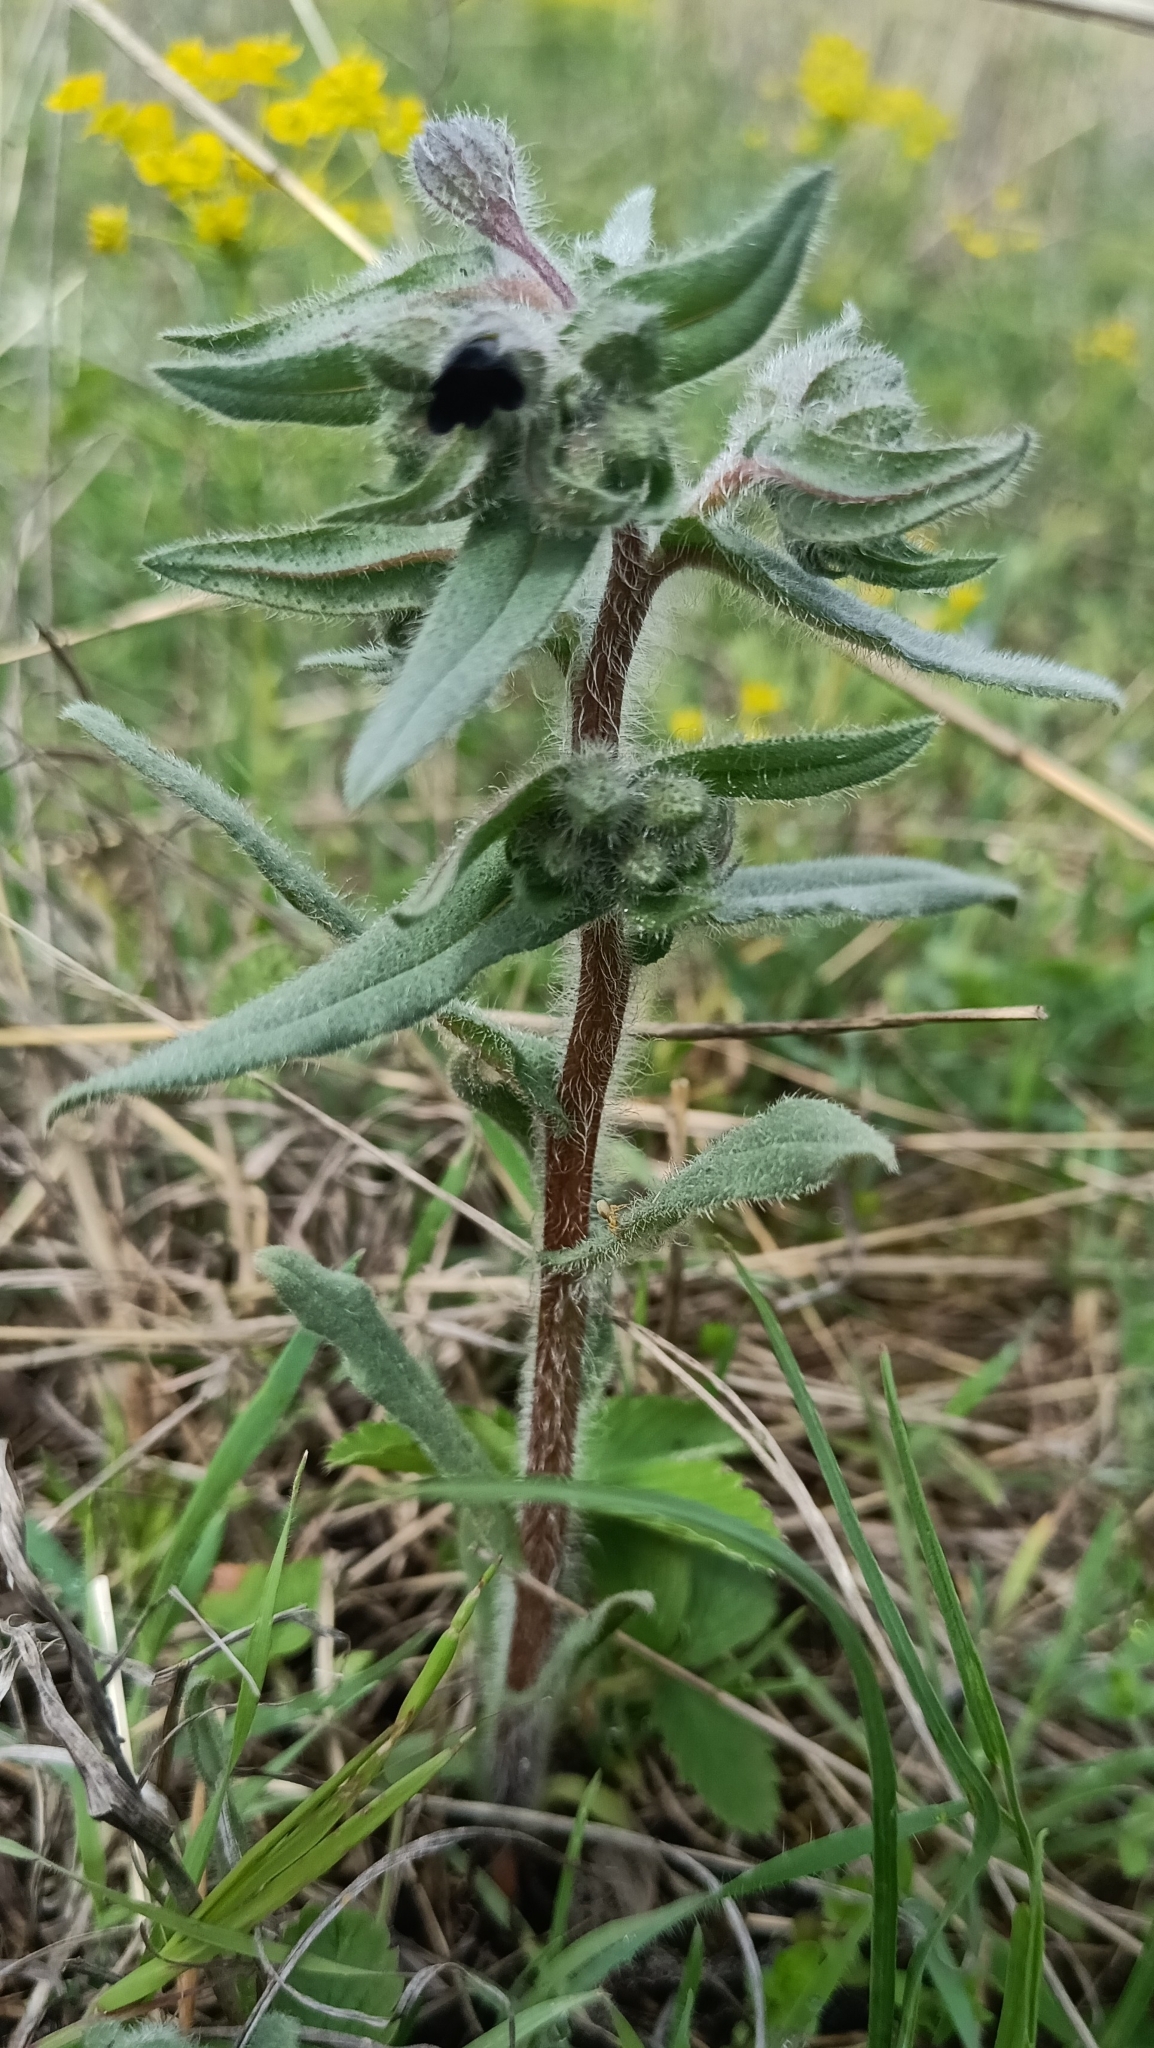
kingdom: Plantae
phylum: Tracheophyta
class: Magnoliopsida
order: Boraginales
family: Boraginaceae
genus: Nonea
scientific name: Nonea pulla
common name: Brown nonea
